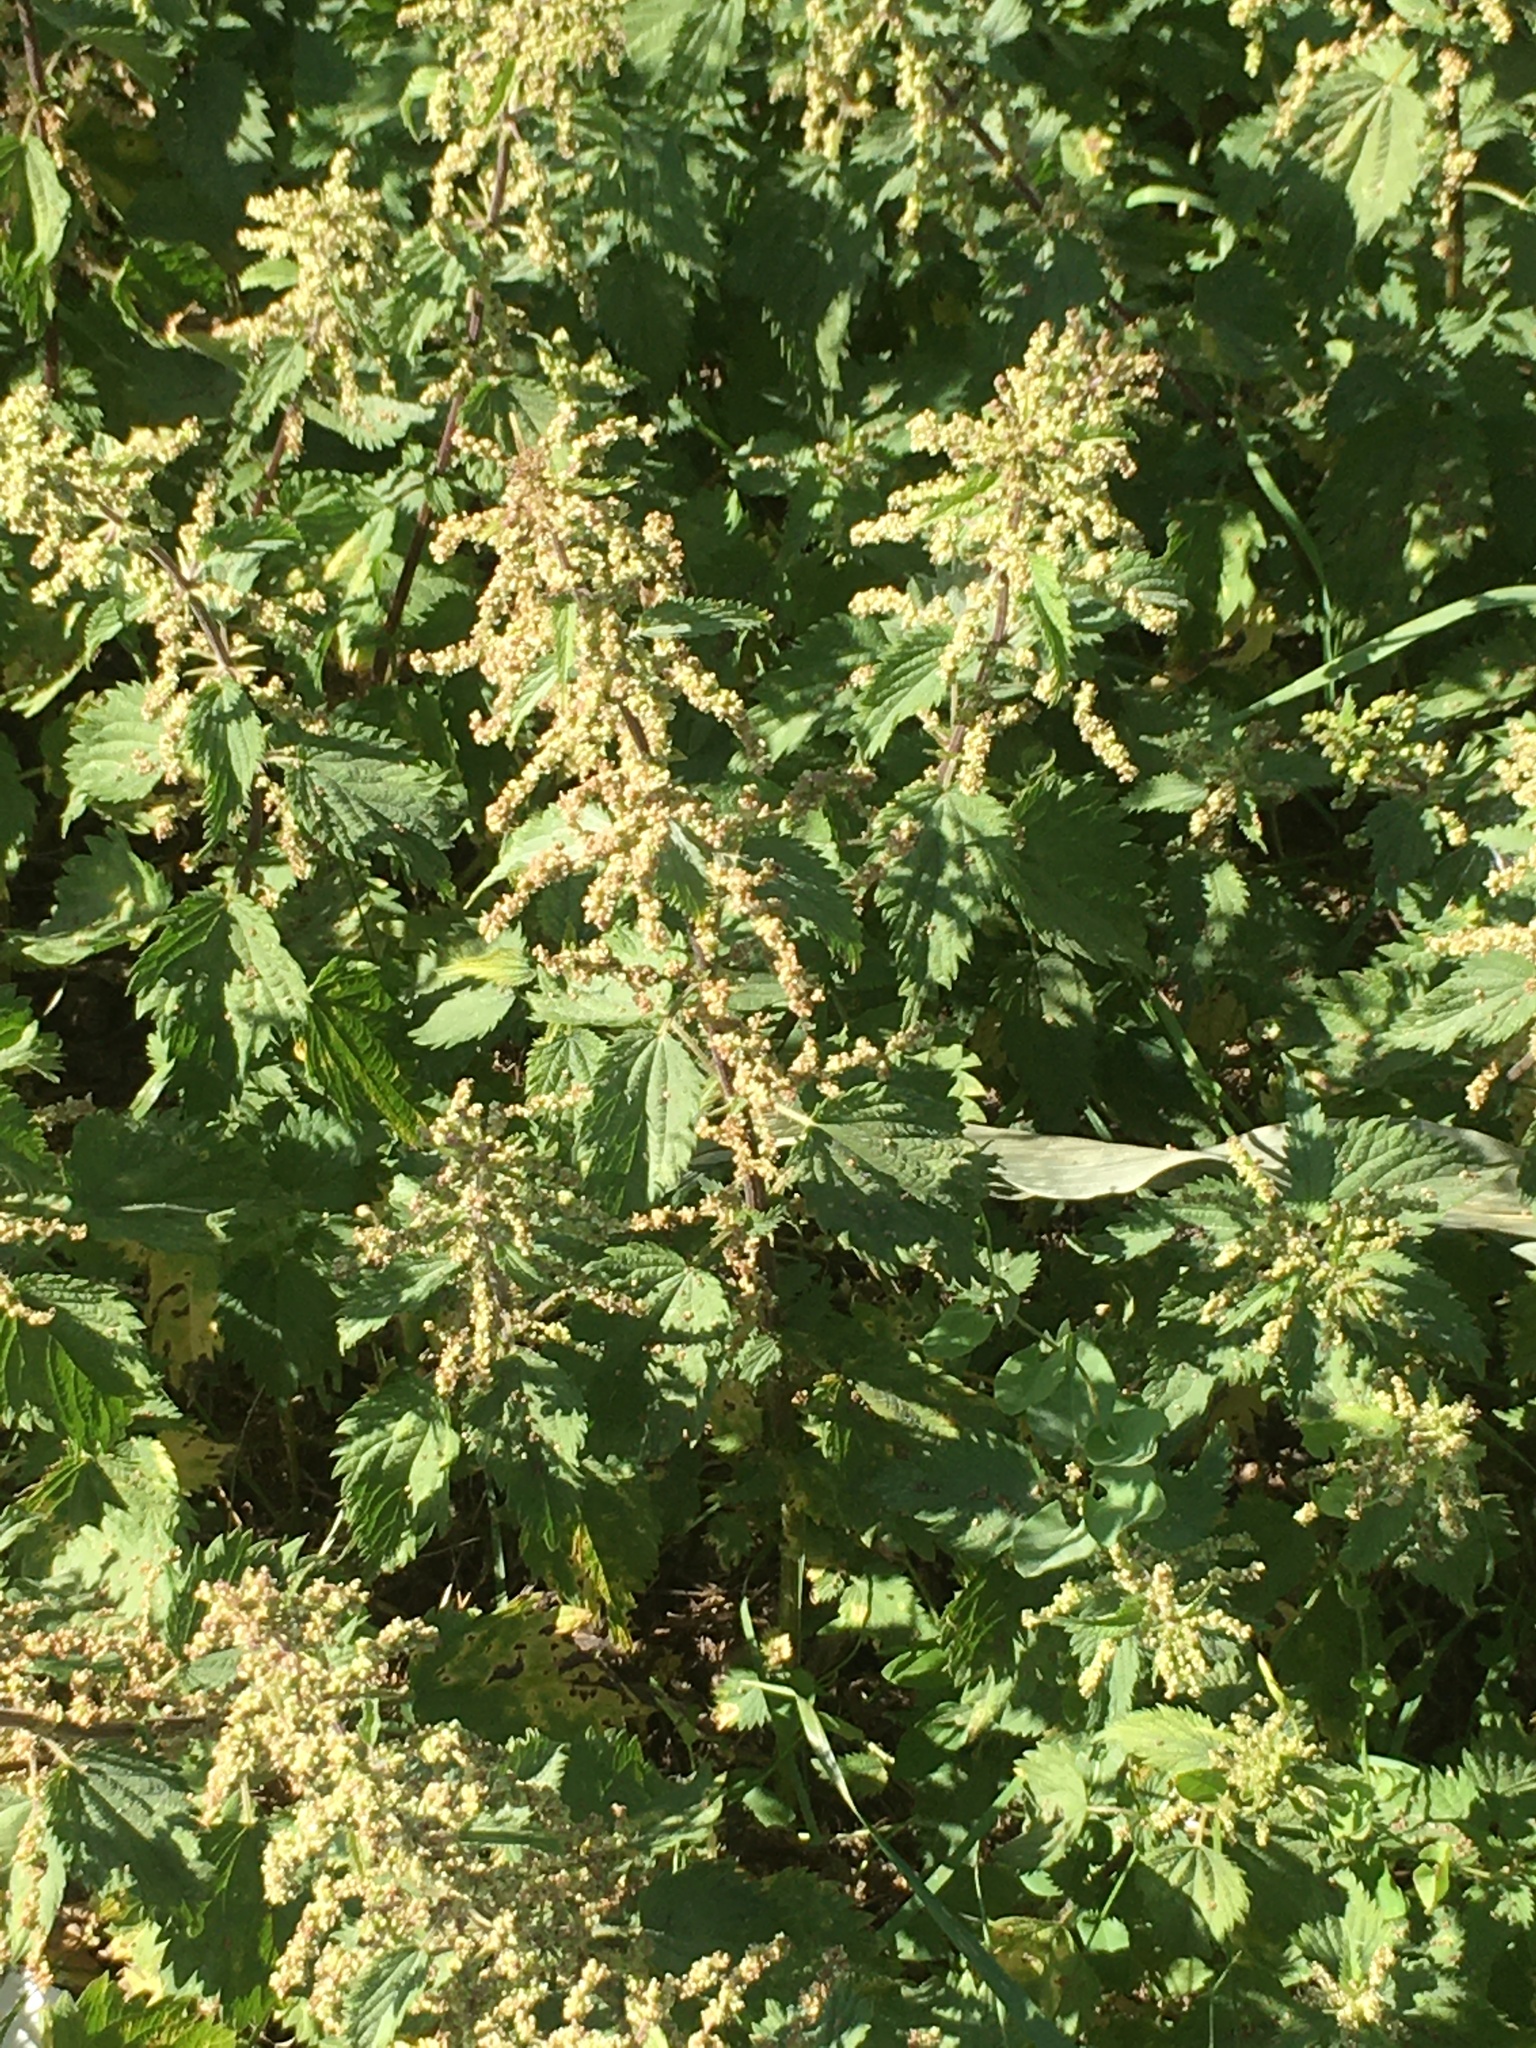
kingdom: Plantae
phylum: Tracheophyta
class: Magnoliopsida
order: Rosales
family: Urticaceae
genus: Urtica
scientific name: Urtica dioica
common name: Common nettle
